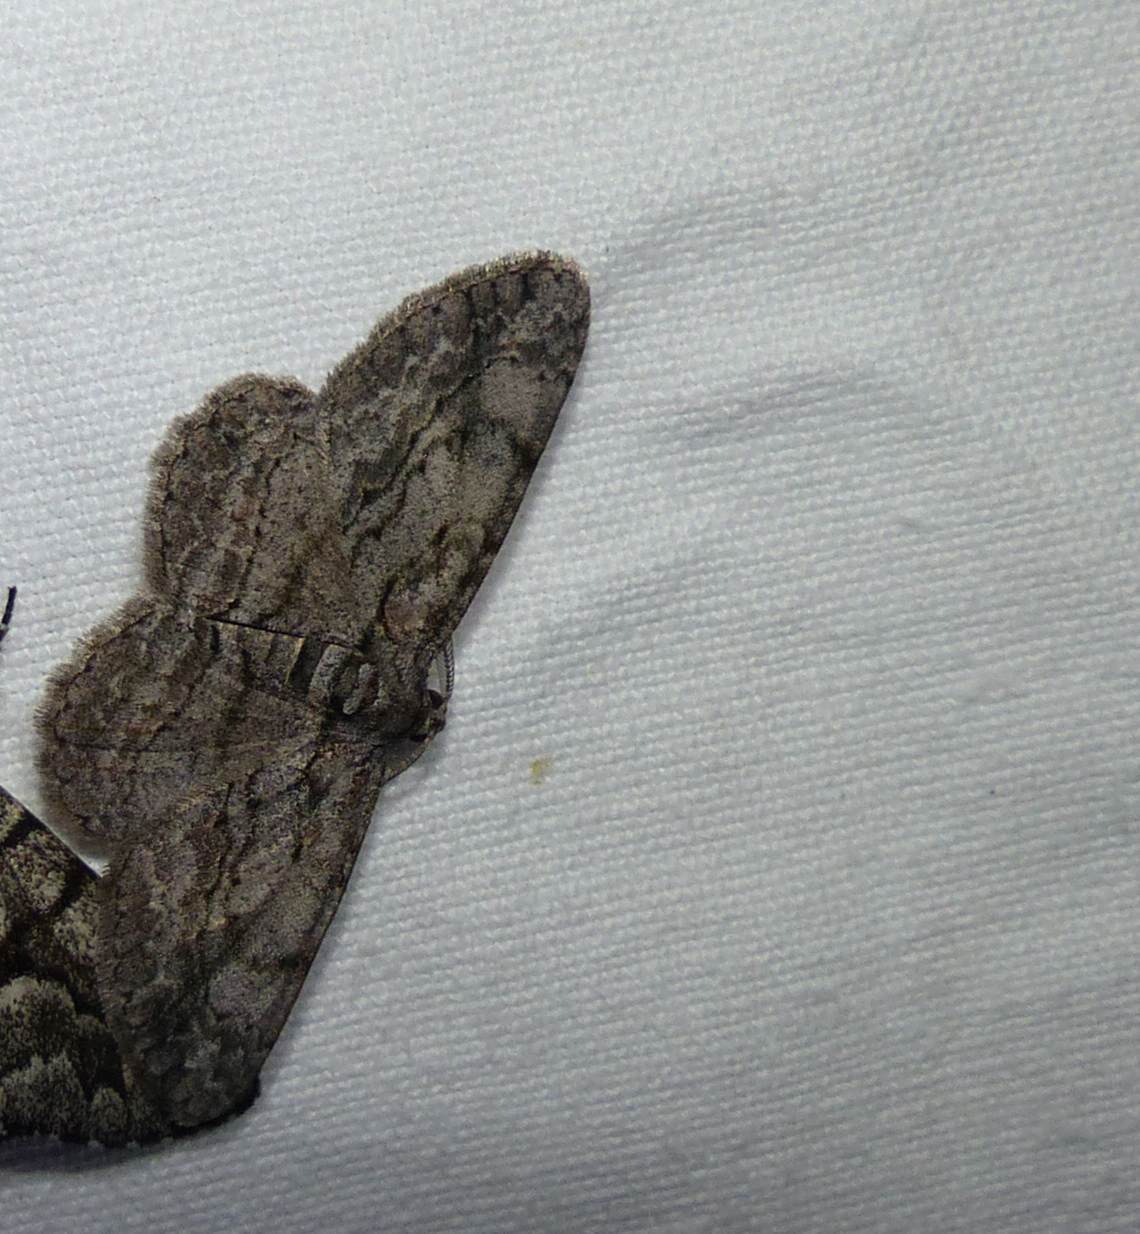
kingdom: Animalia
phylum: Arthropoda
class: Insecta
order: Lepidoptera
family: Geometridae
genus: Anavitrinella
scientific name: Anavitrinella pampinaria
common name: Common gray
